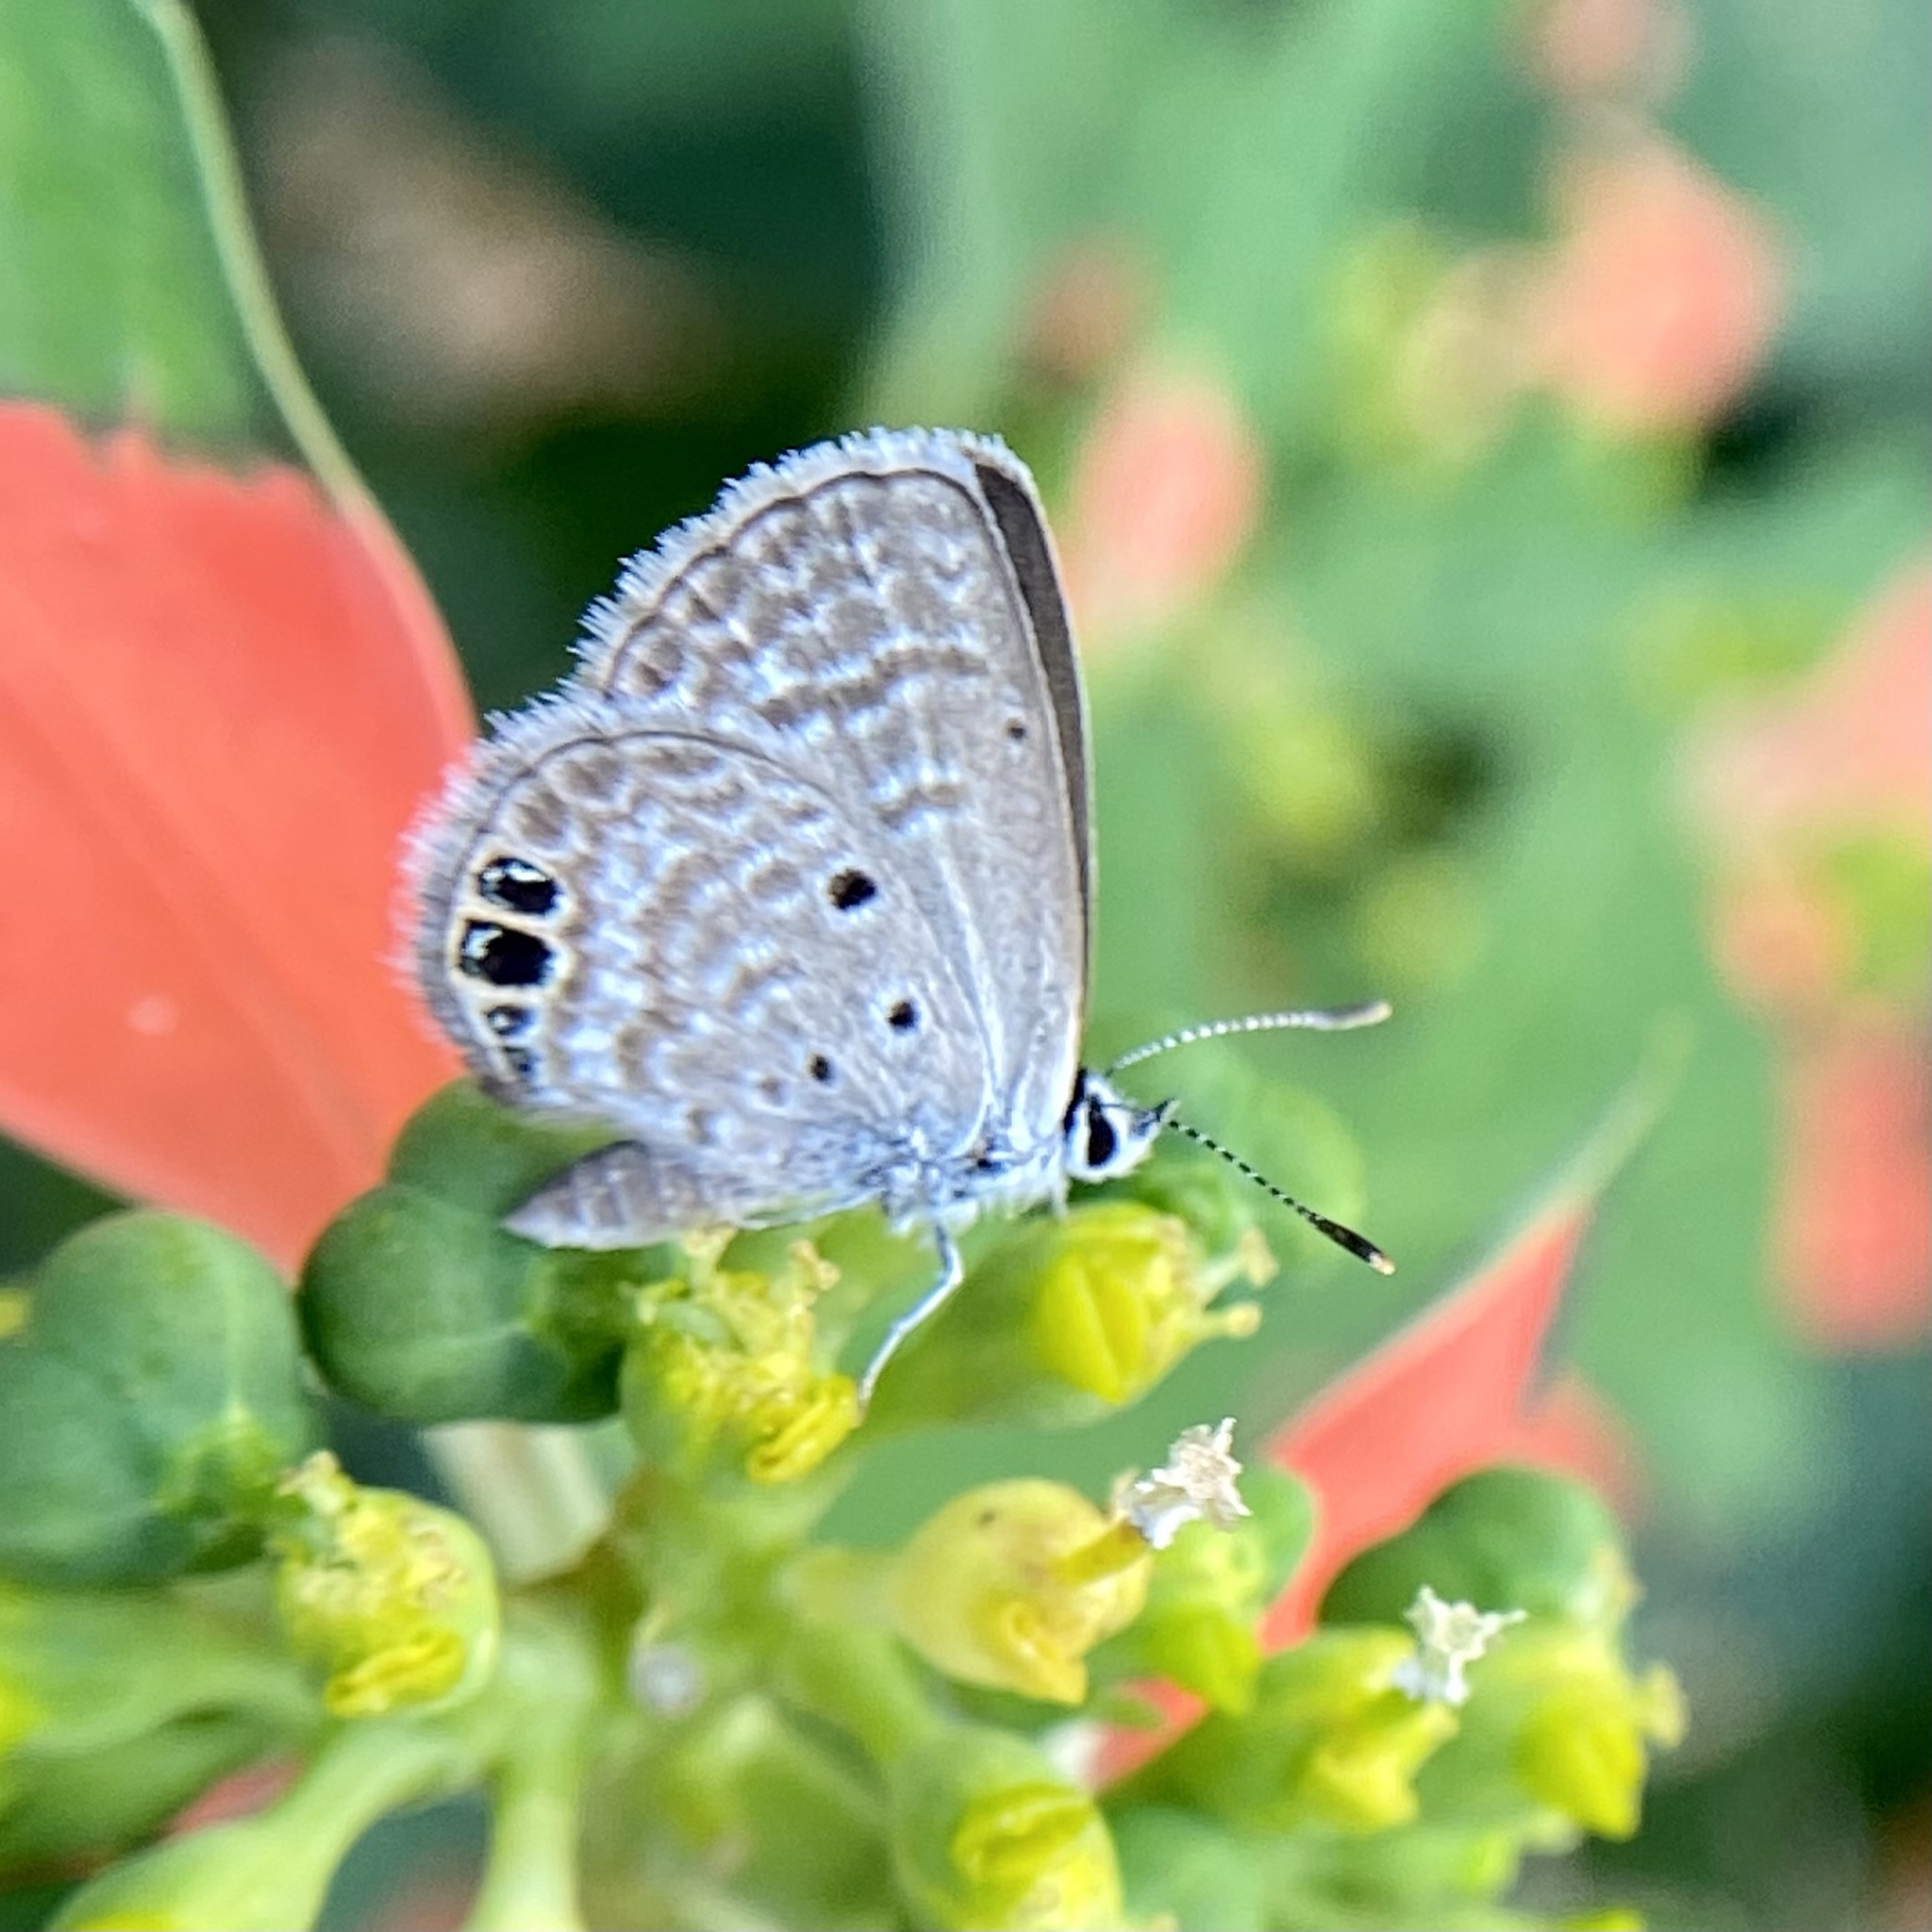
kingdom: Animalia
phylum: Arthropoda
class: Insecta
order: Lepidoptera
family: Lycaenidae
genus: Hemiargus
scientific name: Hemiargus ceraunus
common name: Ceraunus blue
